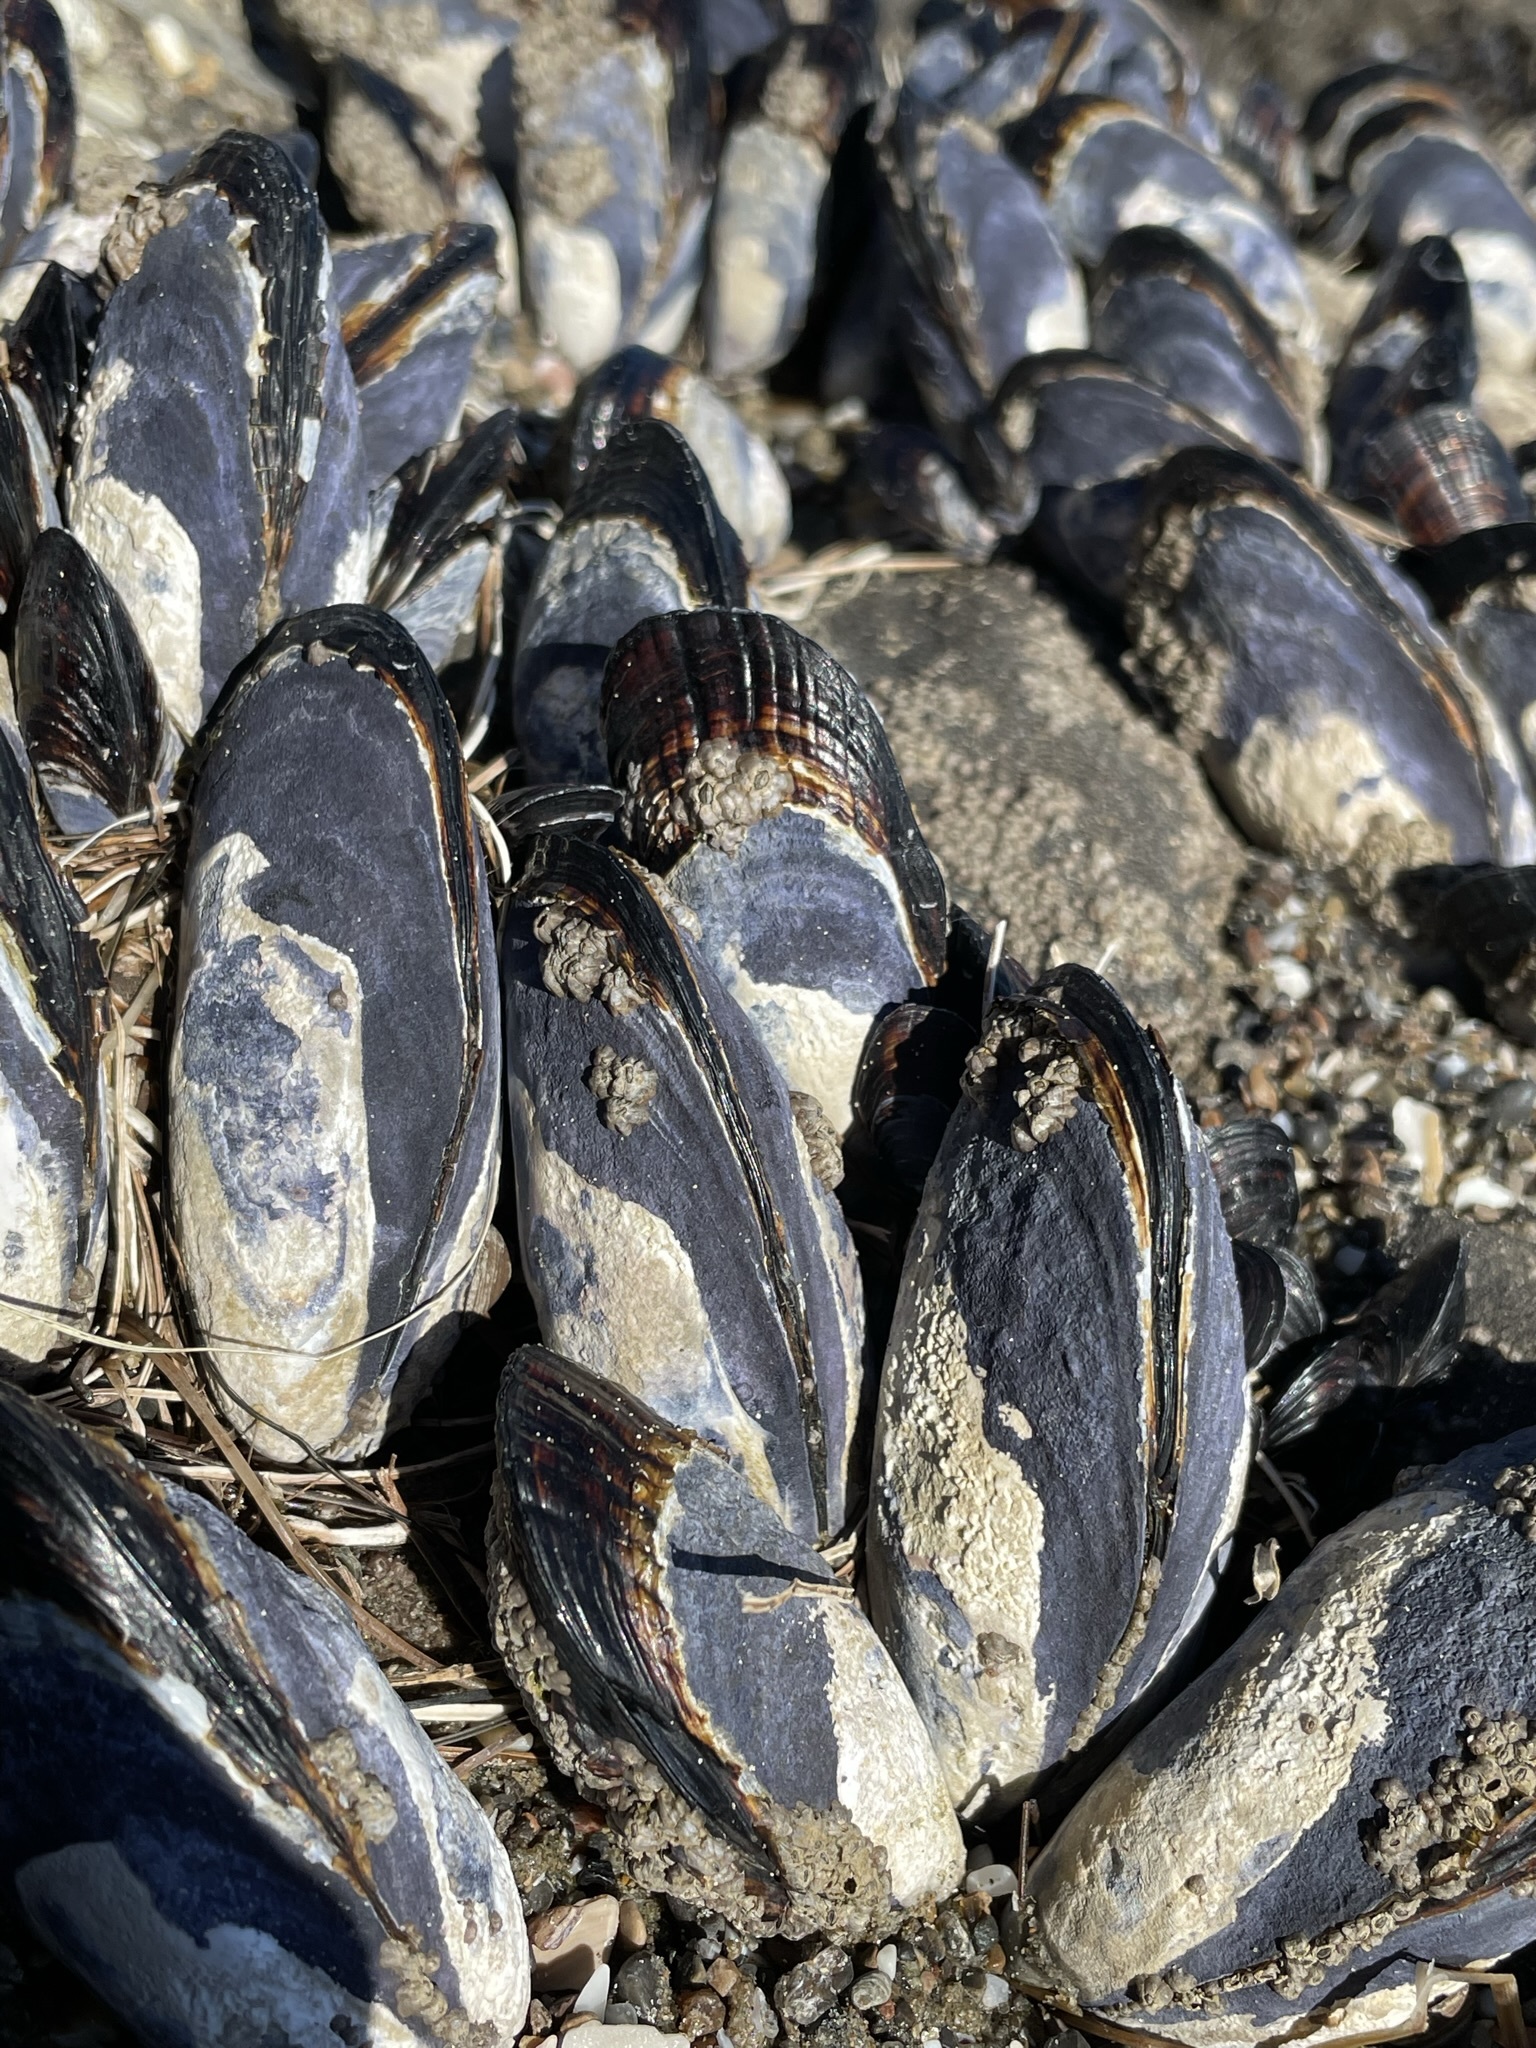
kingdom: Animalia
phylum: Mollusca
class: Bivalvia
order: Mytilida
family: Mytilidae
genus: Mytilus
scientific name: Mytilus californianus
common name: California mussel
